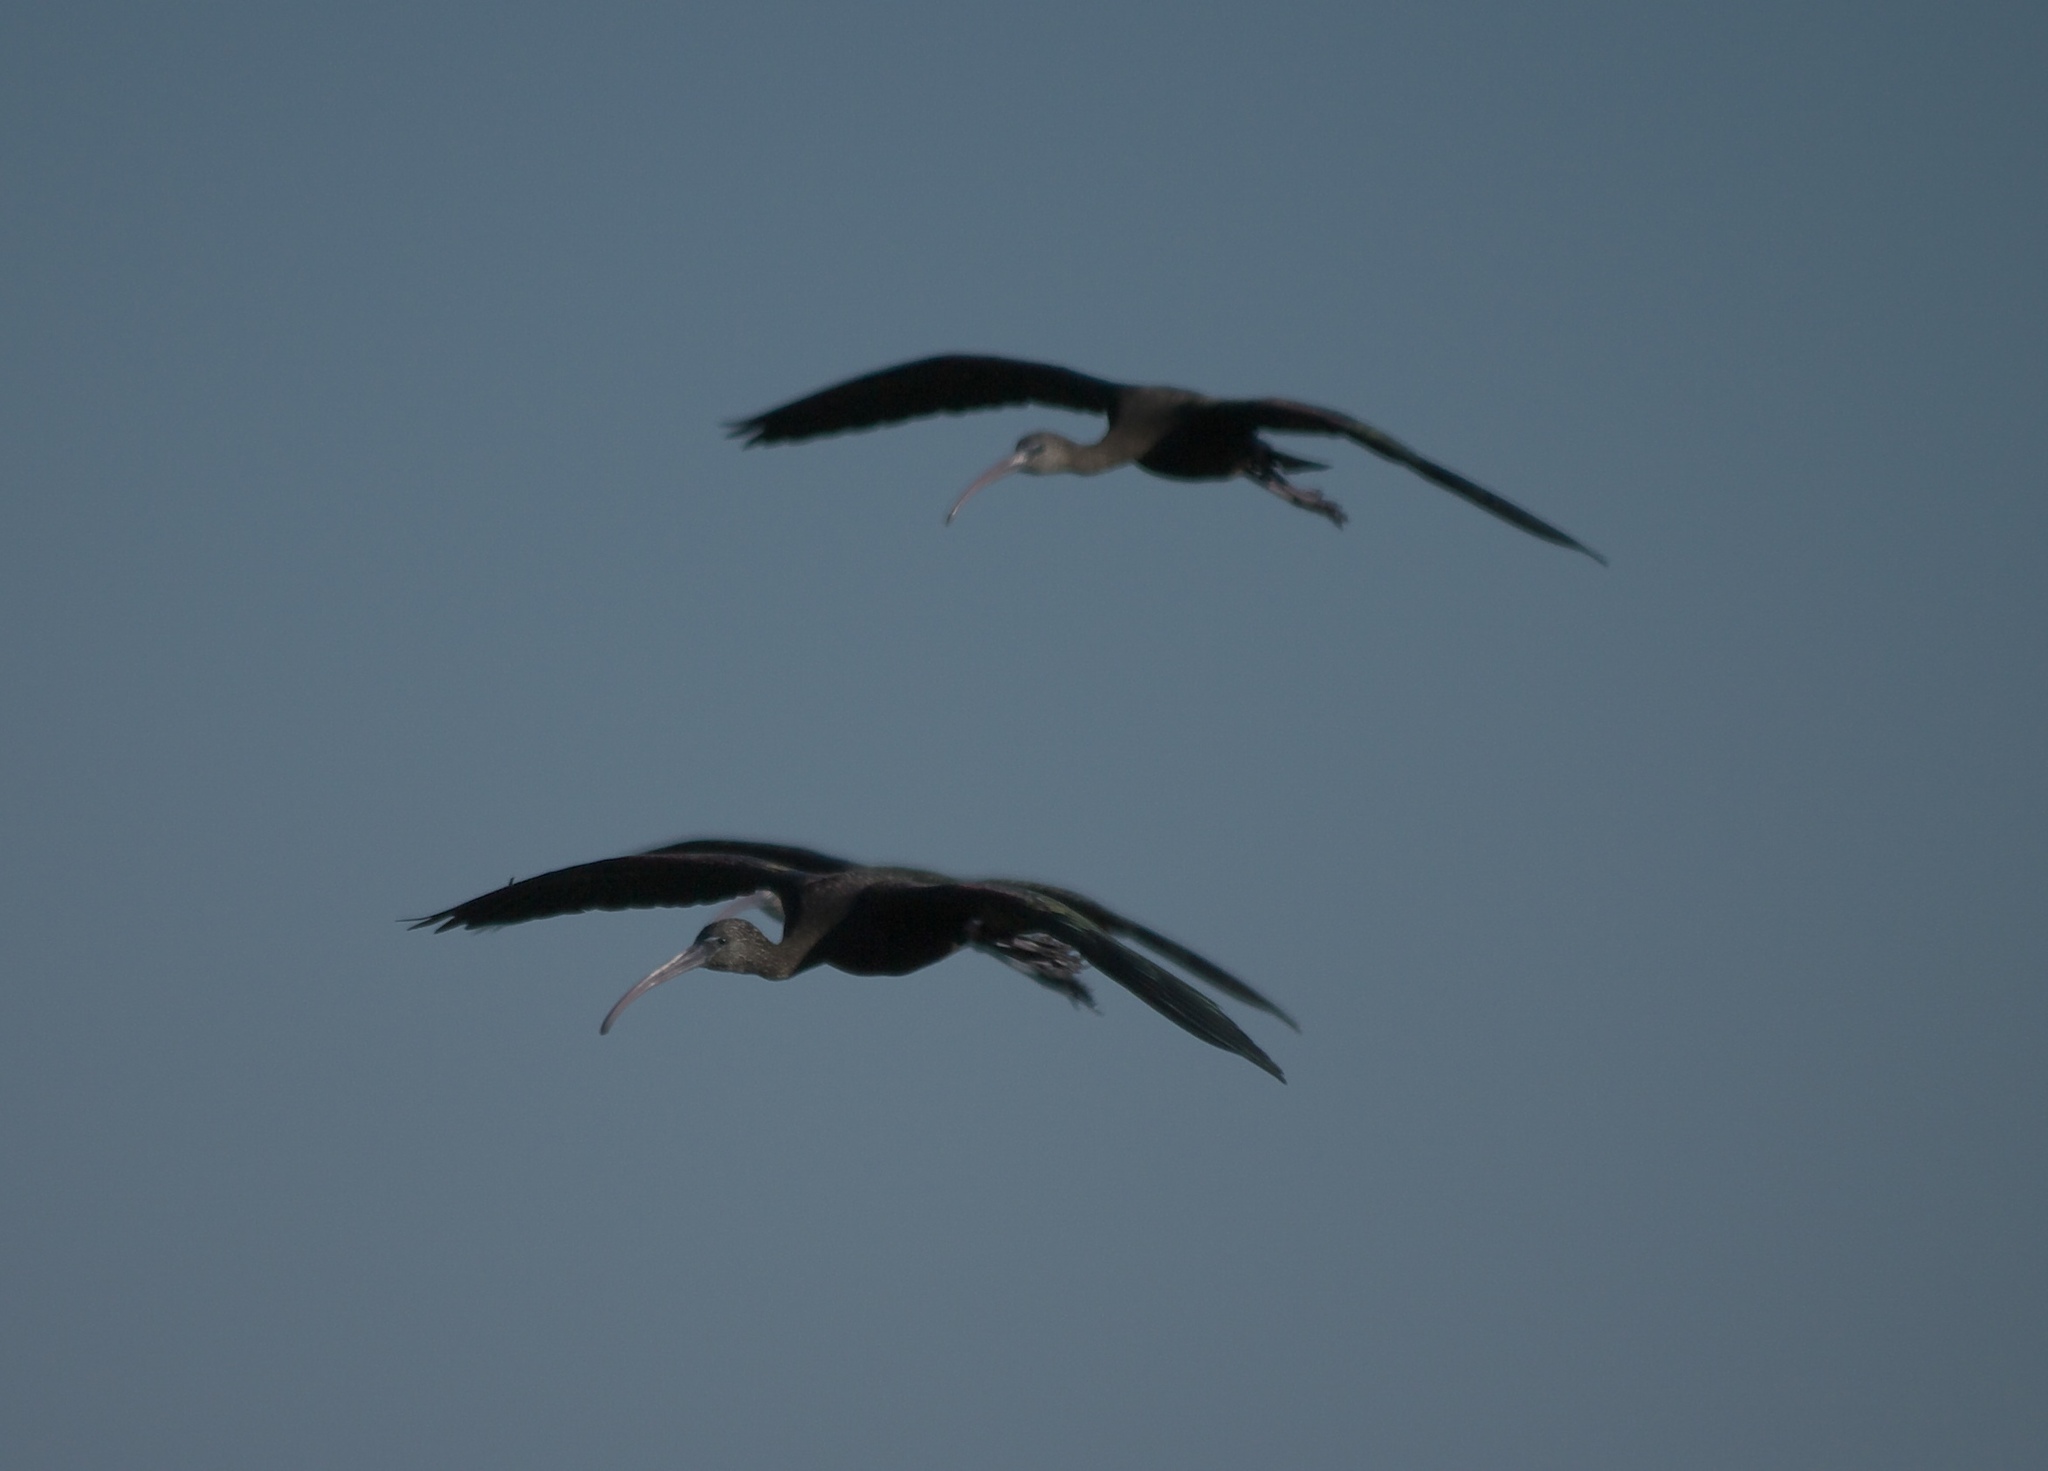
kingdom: Animalia
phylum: Chordata
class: Aves
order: Pelecaniformes
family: Threskiornithidae
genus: Plegadis
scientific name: Plegadis falcinellus
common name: Glossy ibis
